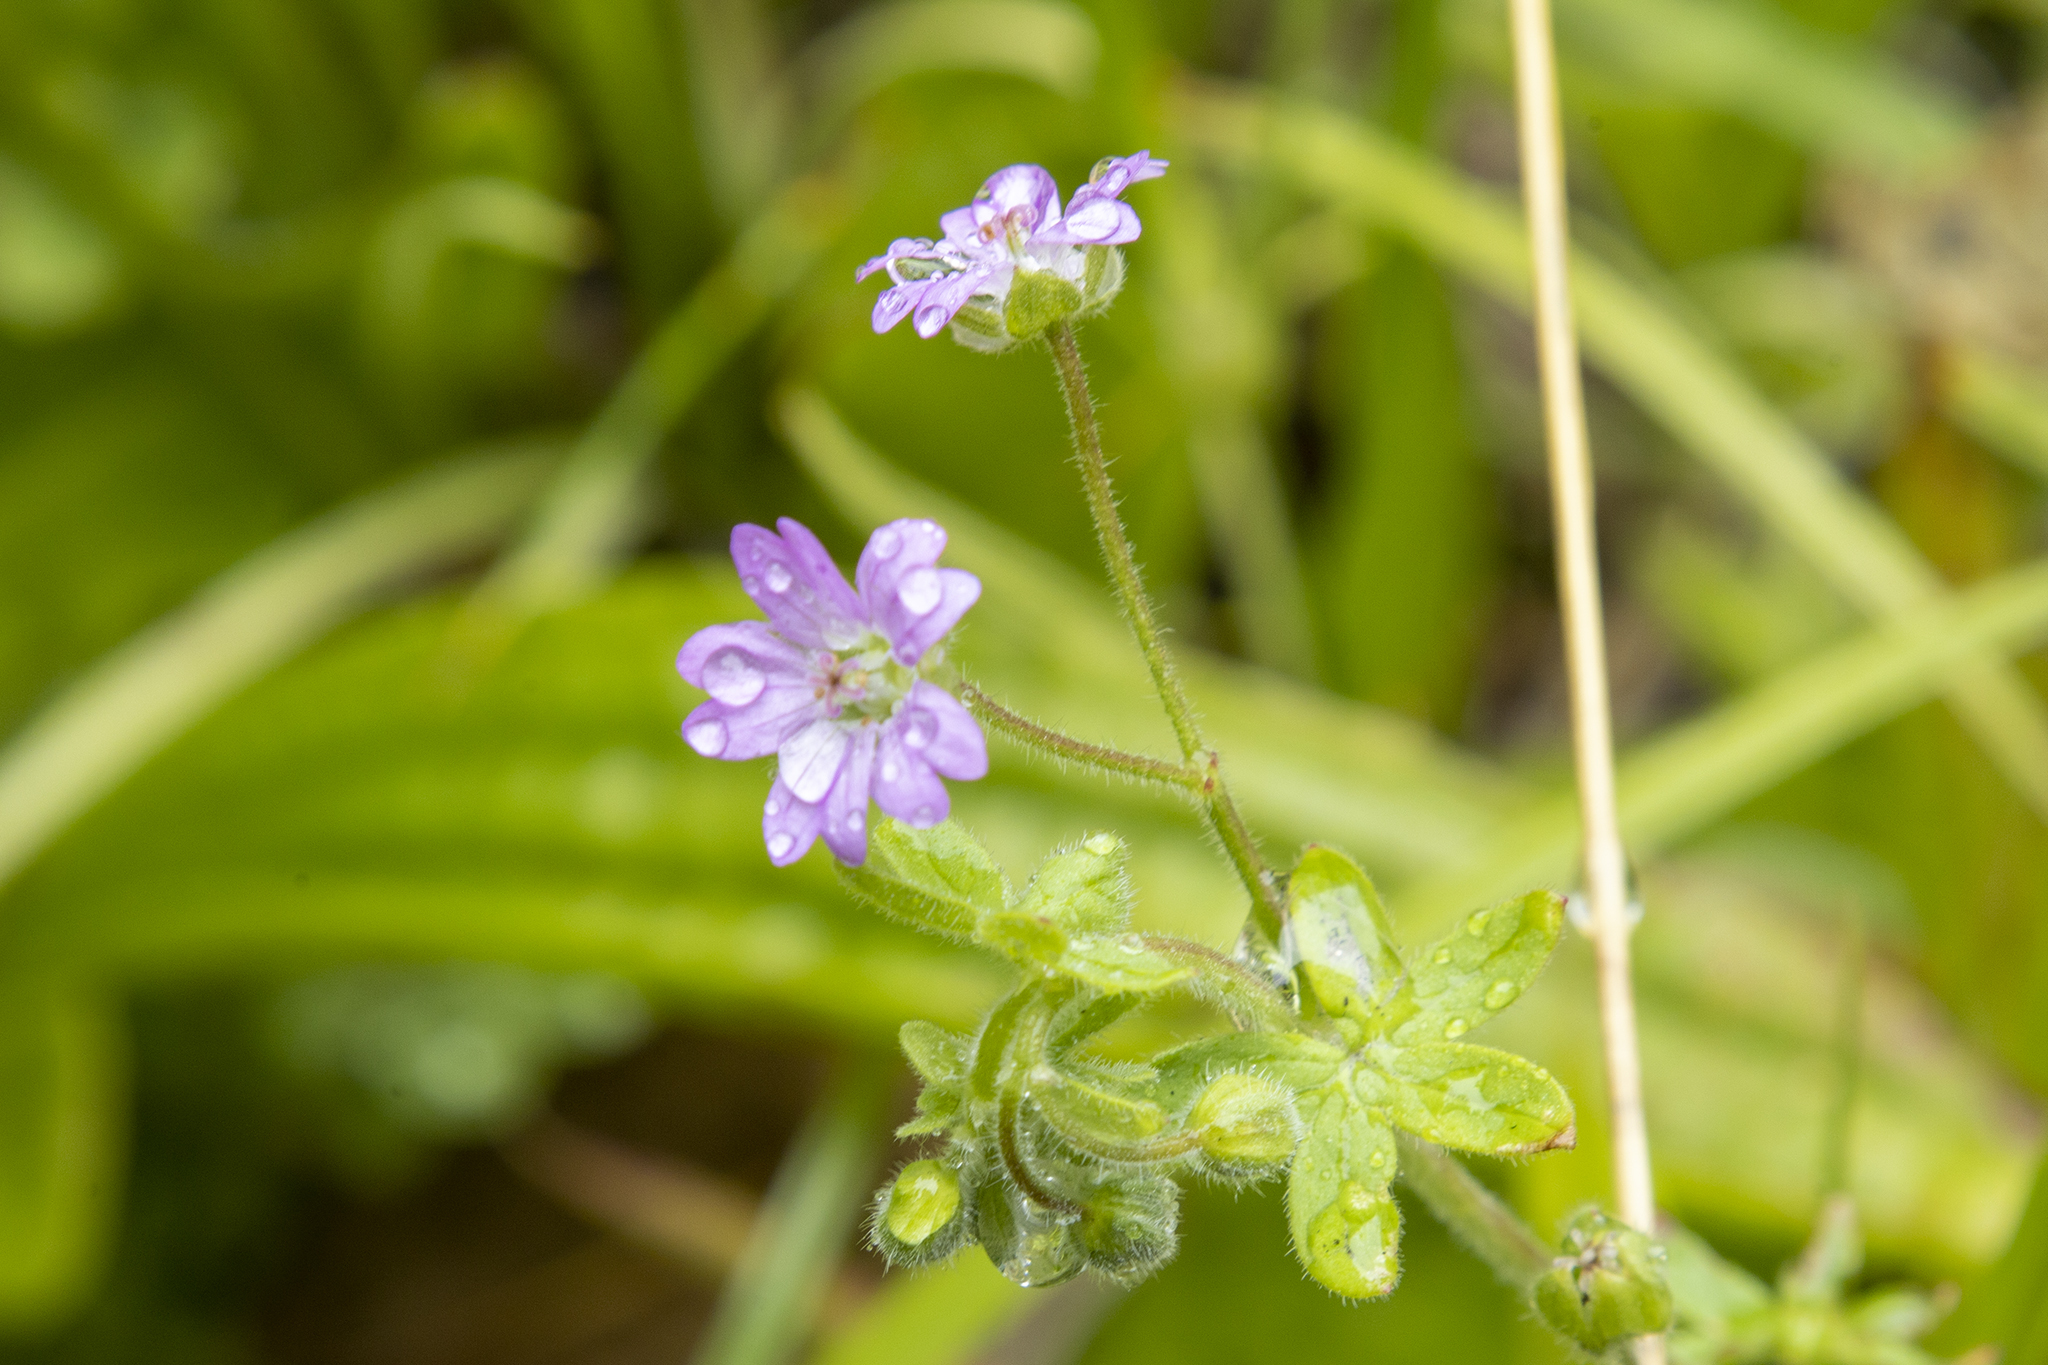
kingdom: Plantae
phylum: Tracheophyta
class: Magnoliopsida
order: Geraniales
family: Geraniaceae
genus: Geranium
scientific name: Geranium molle
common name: Dove's-foot crane's-bill
